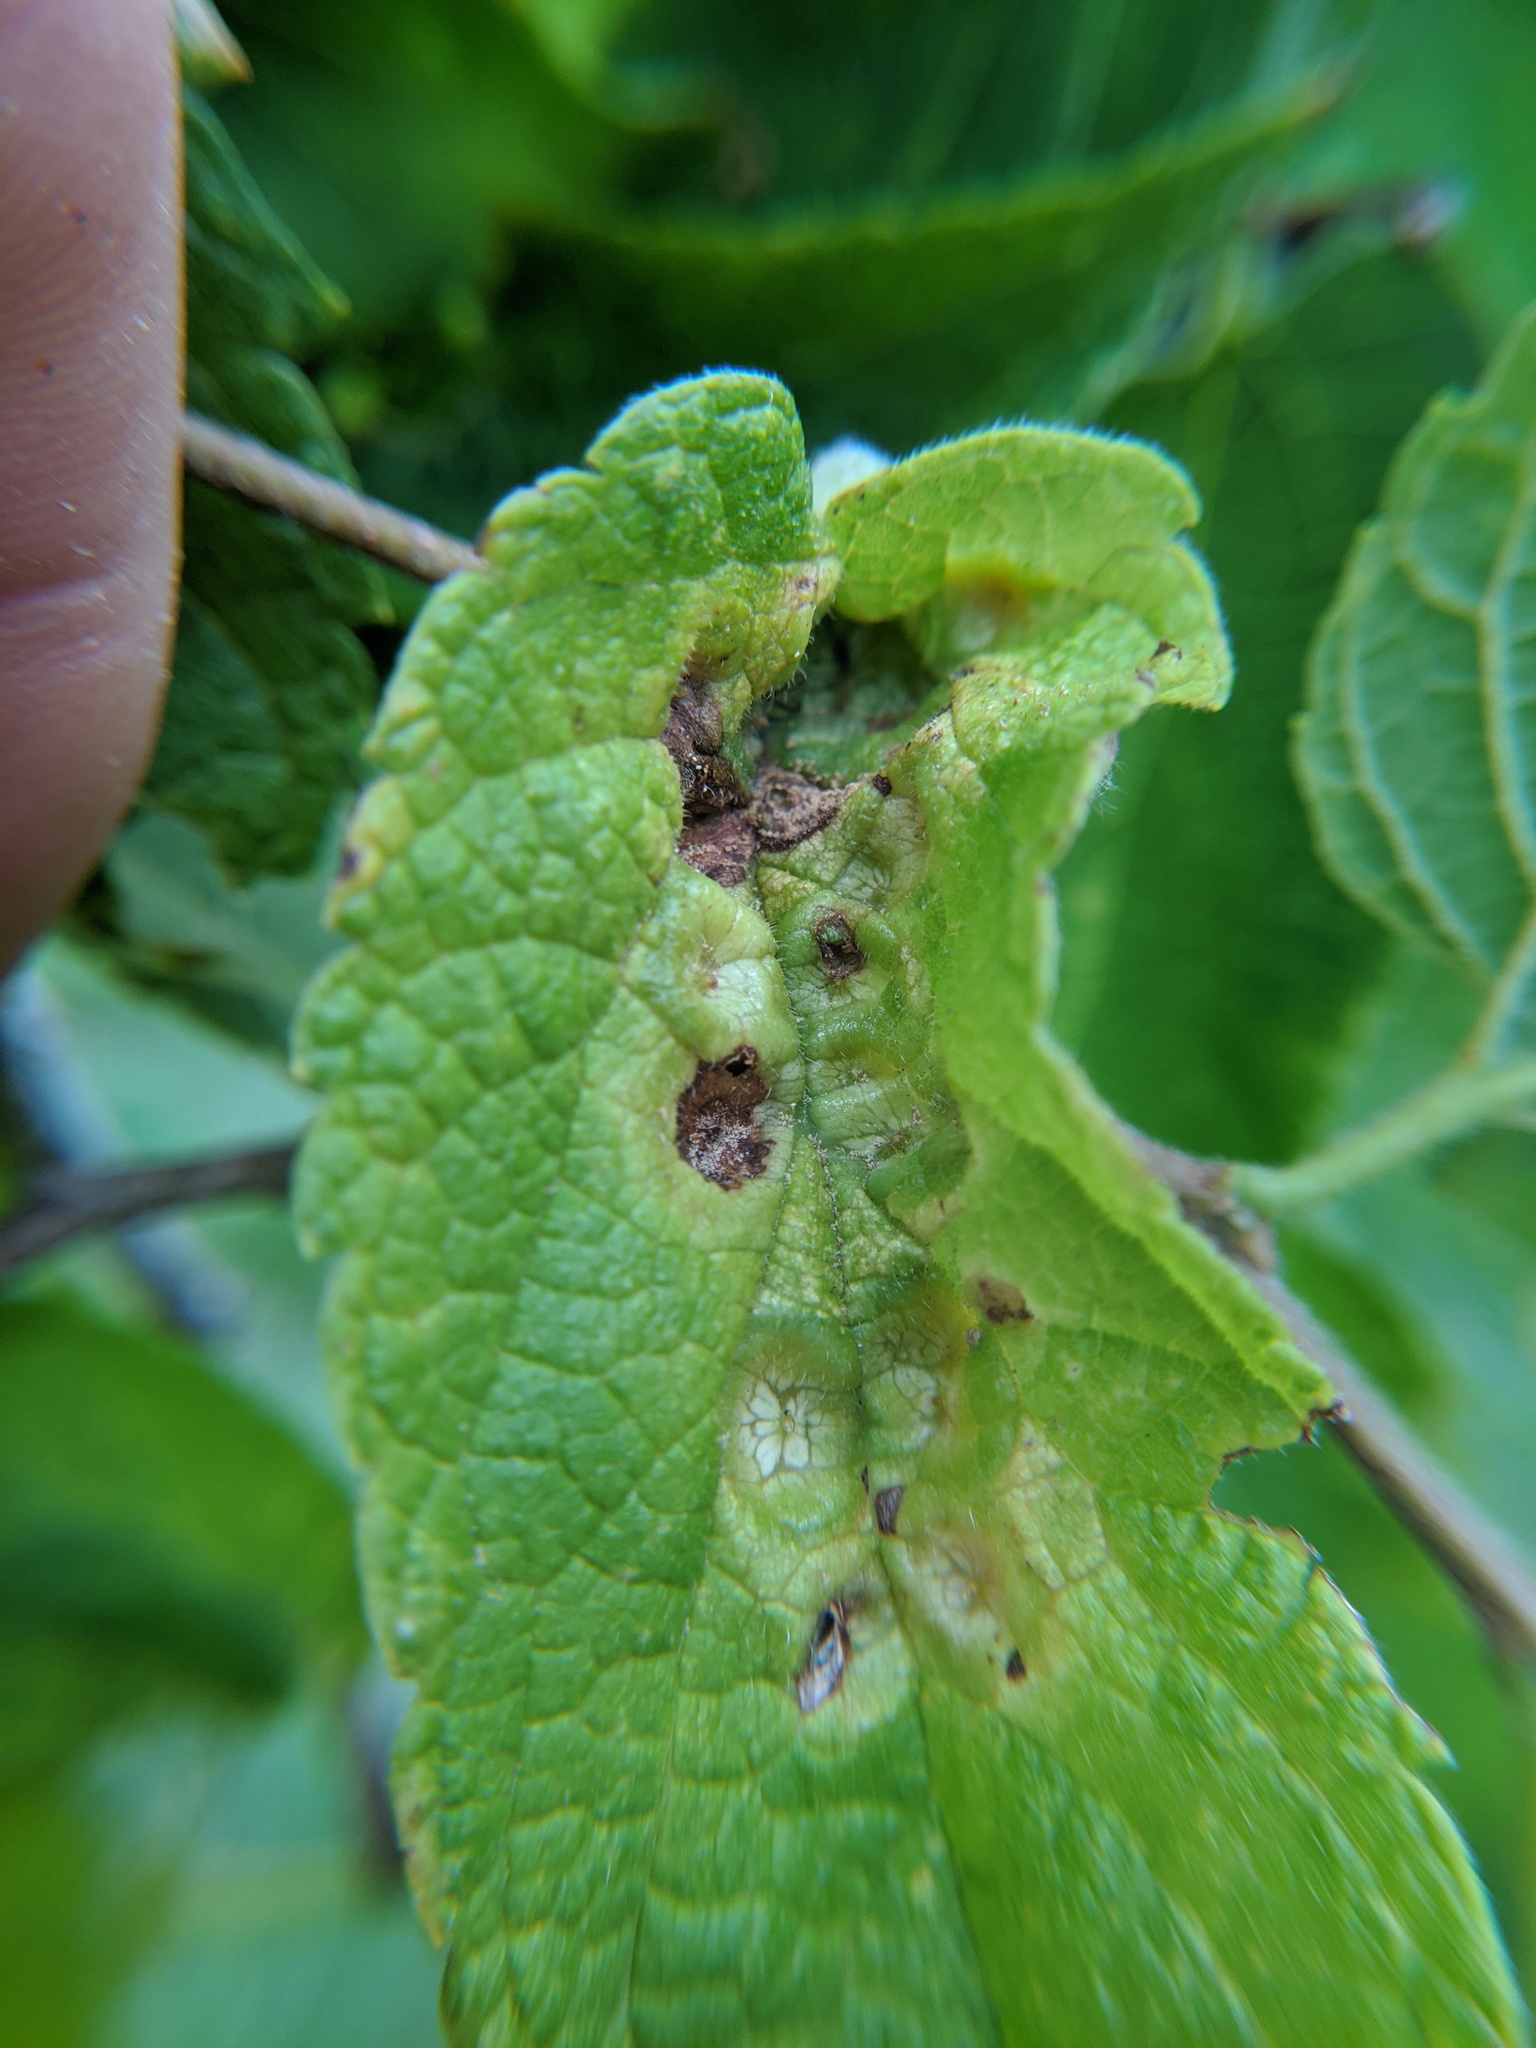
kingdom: Animalia
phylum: Arthropoda
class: Insecta
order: Hemiptera
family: Aphalaridae
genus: Pachypsylla
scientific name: Pachypsylla celtidismamma
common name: Hackberry nipplegall psyllid
